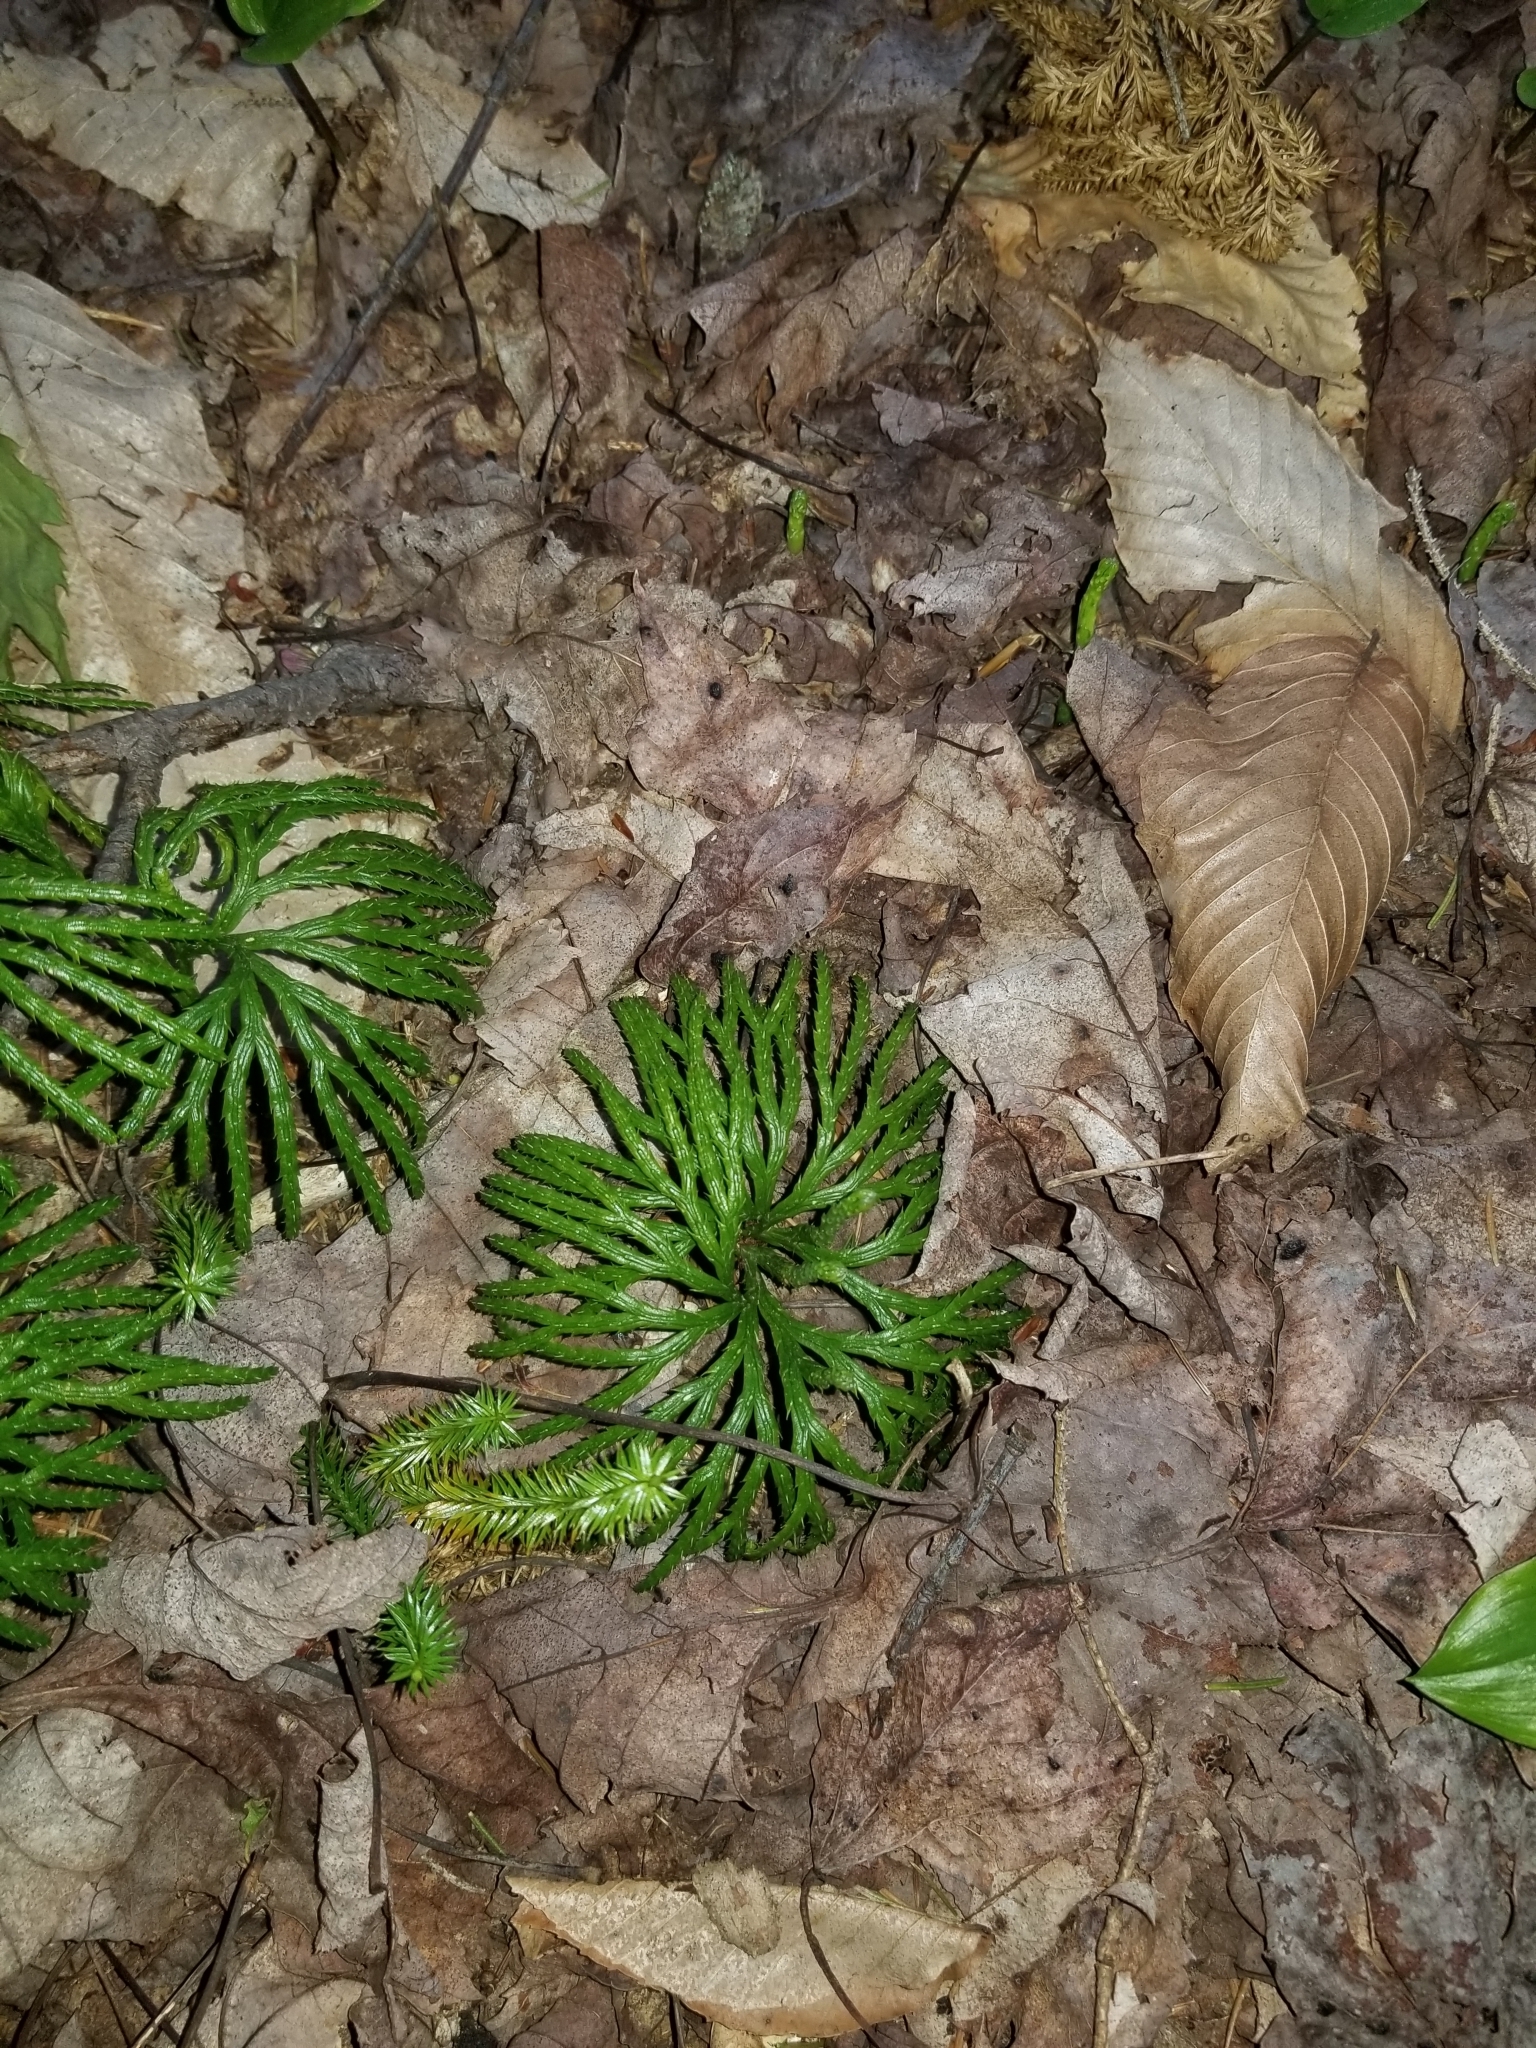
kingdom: Plantae
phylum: Tracheophyta
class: Lycopodiopsida
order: Lycopodiales
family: Lycopodiaceae
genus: Diphasiastrum
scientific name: Diphasiastrum digitatum
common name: Southern running-pine
